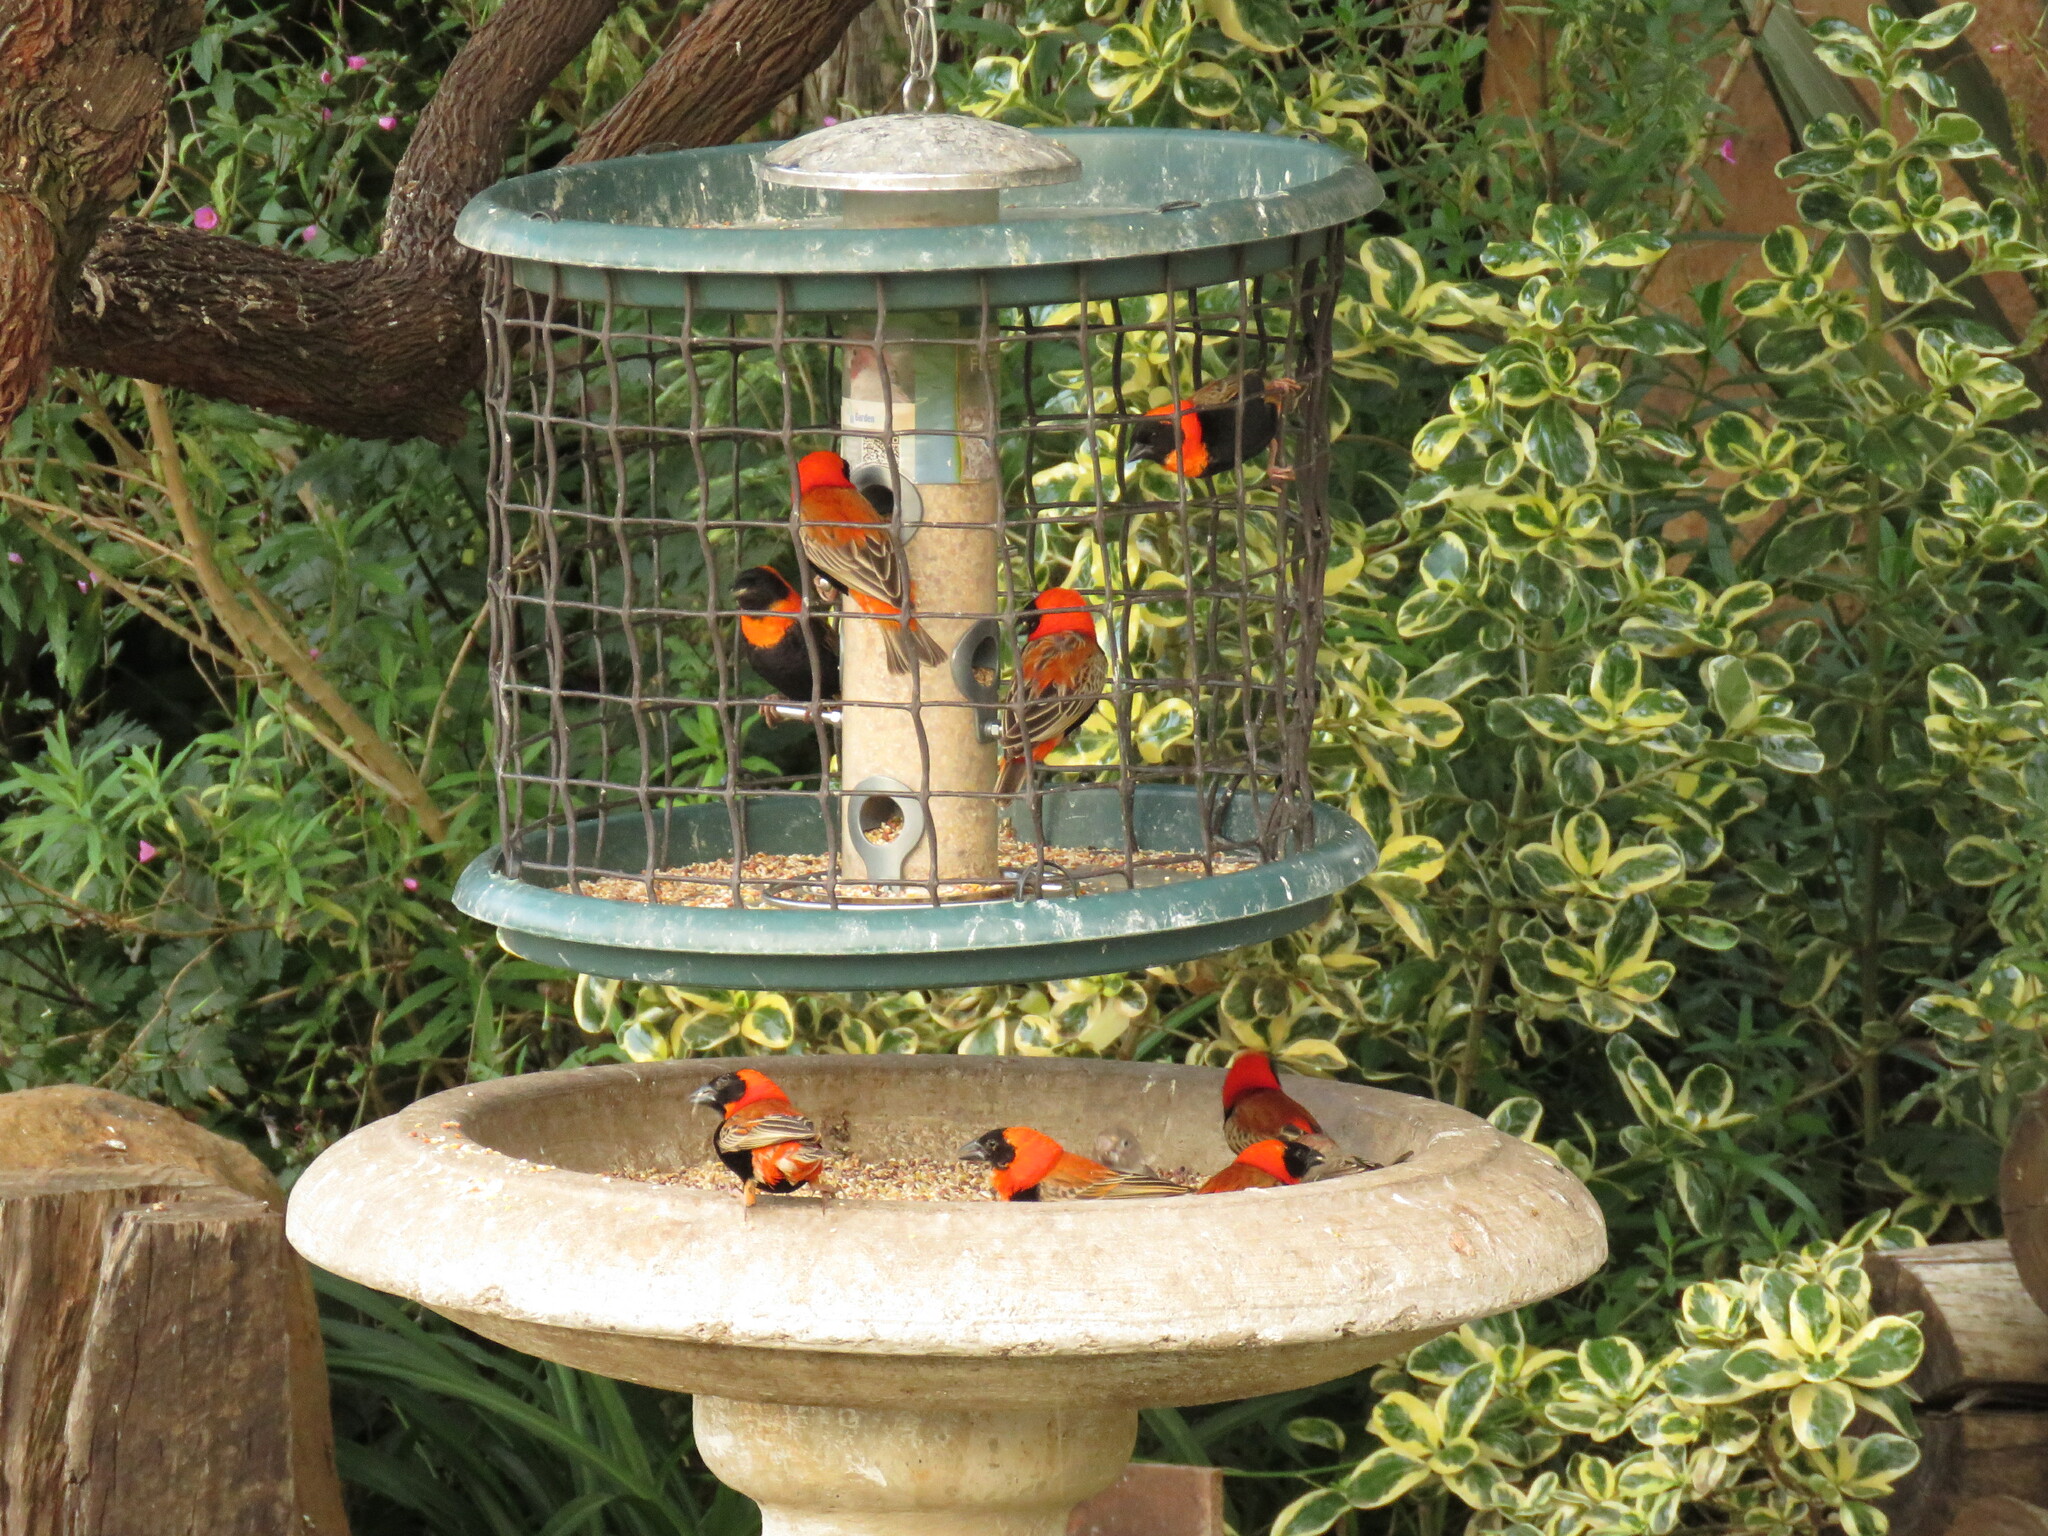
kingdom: Animalia
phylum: Chordata
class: Aves
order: Passeriformes
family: Ploceidae
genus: Euplectes
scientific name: Euplectes orix
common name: Southern red bishop
